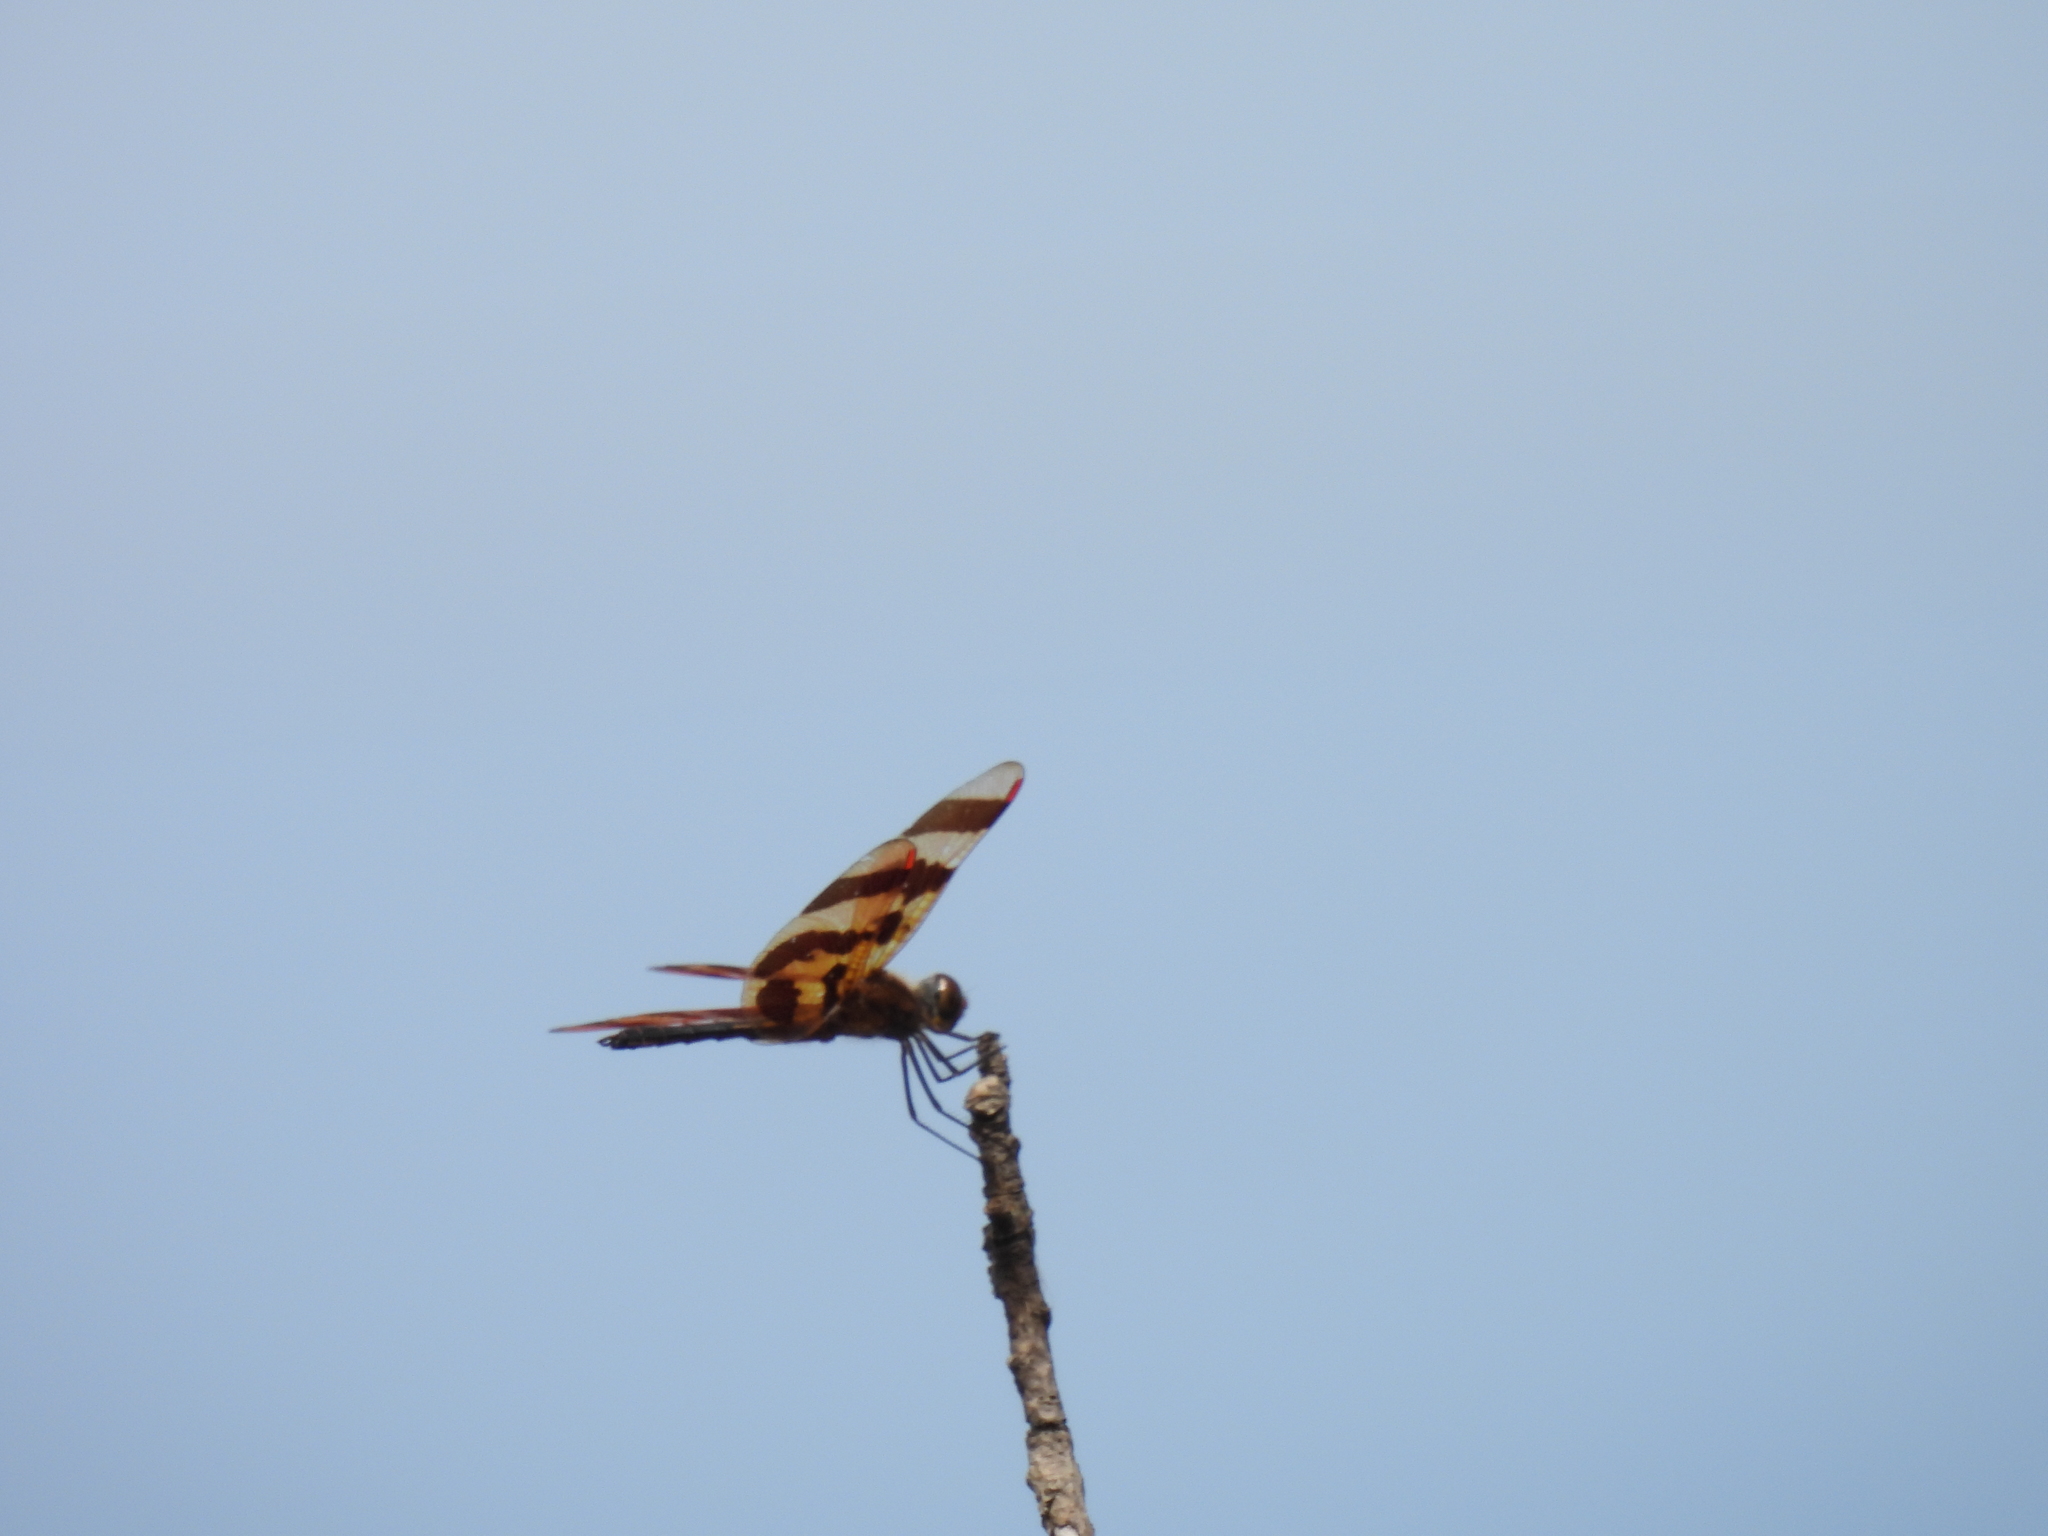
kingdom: Animalia
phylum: Arthropoda
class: Insecta
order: Odonata
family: Libellulidae
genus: Celithemis
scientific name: Celithemis eponina
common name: Halloween pennant
